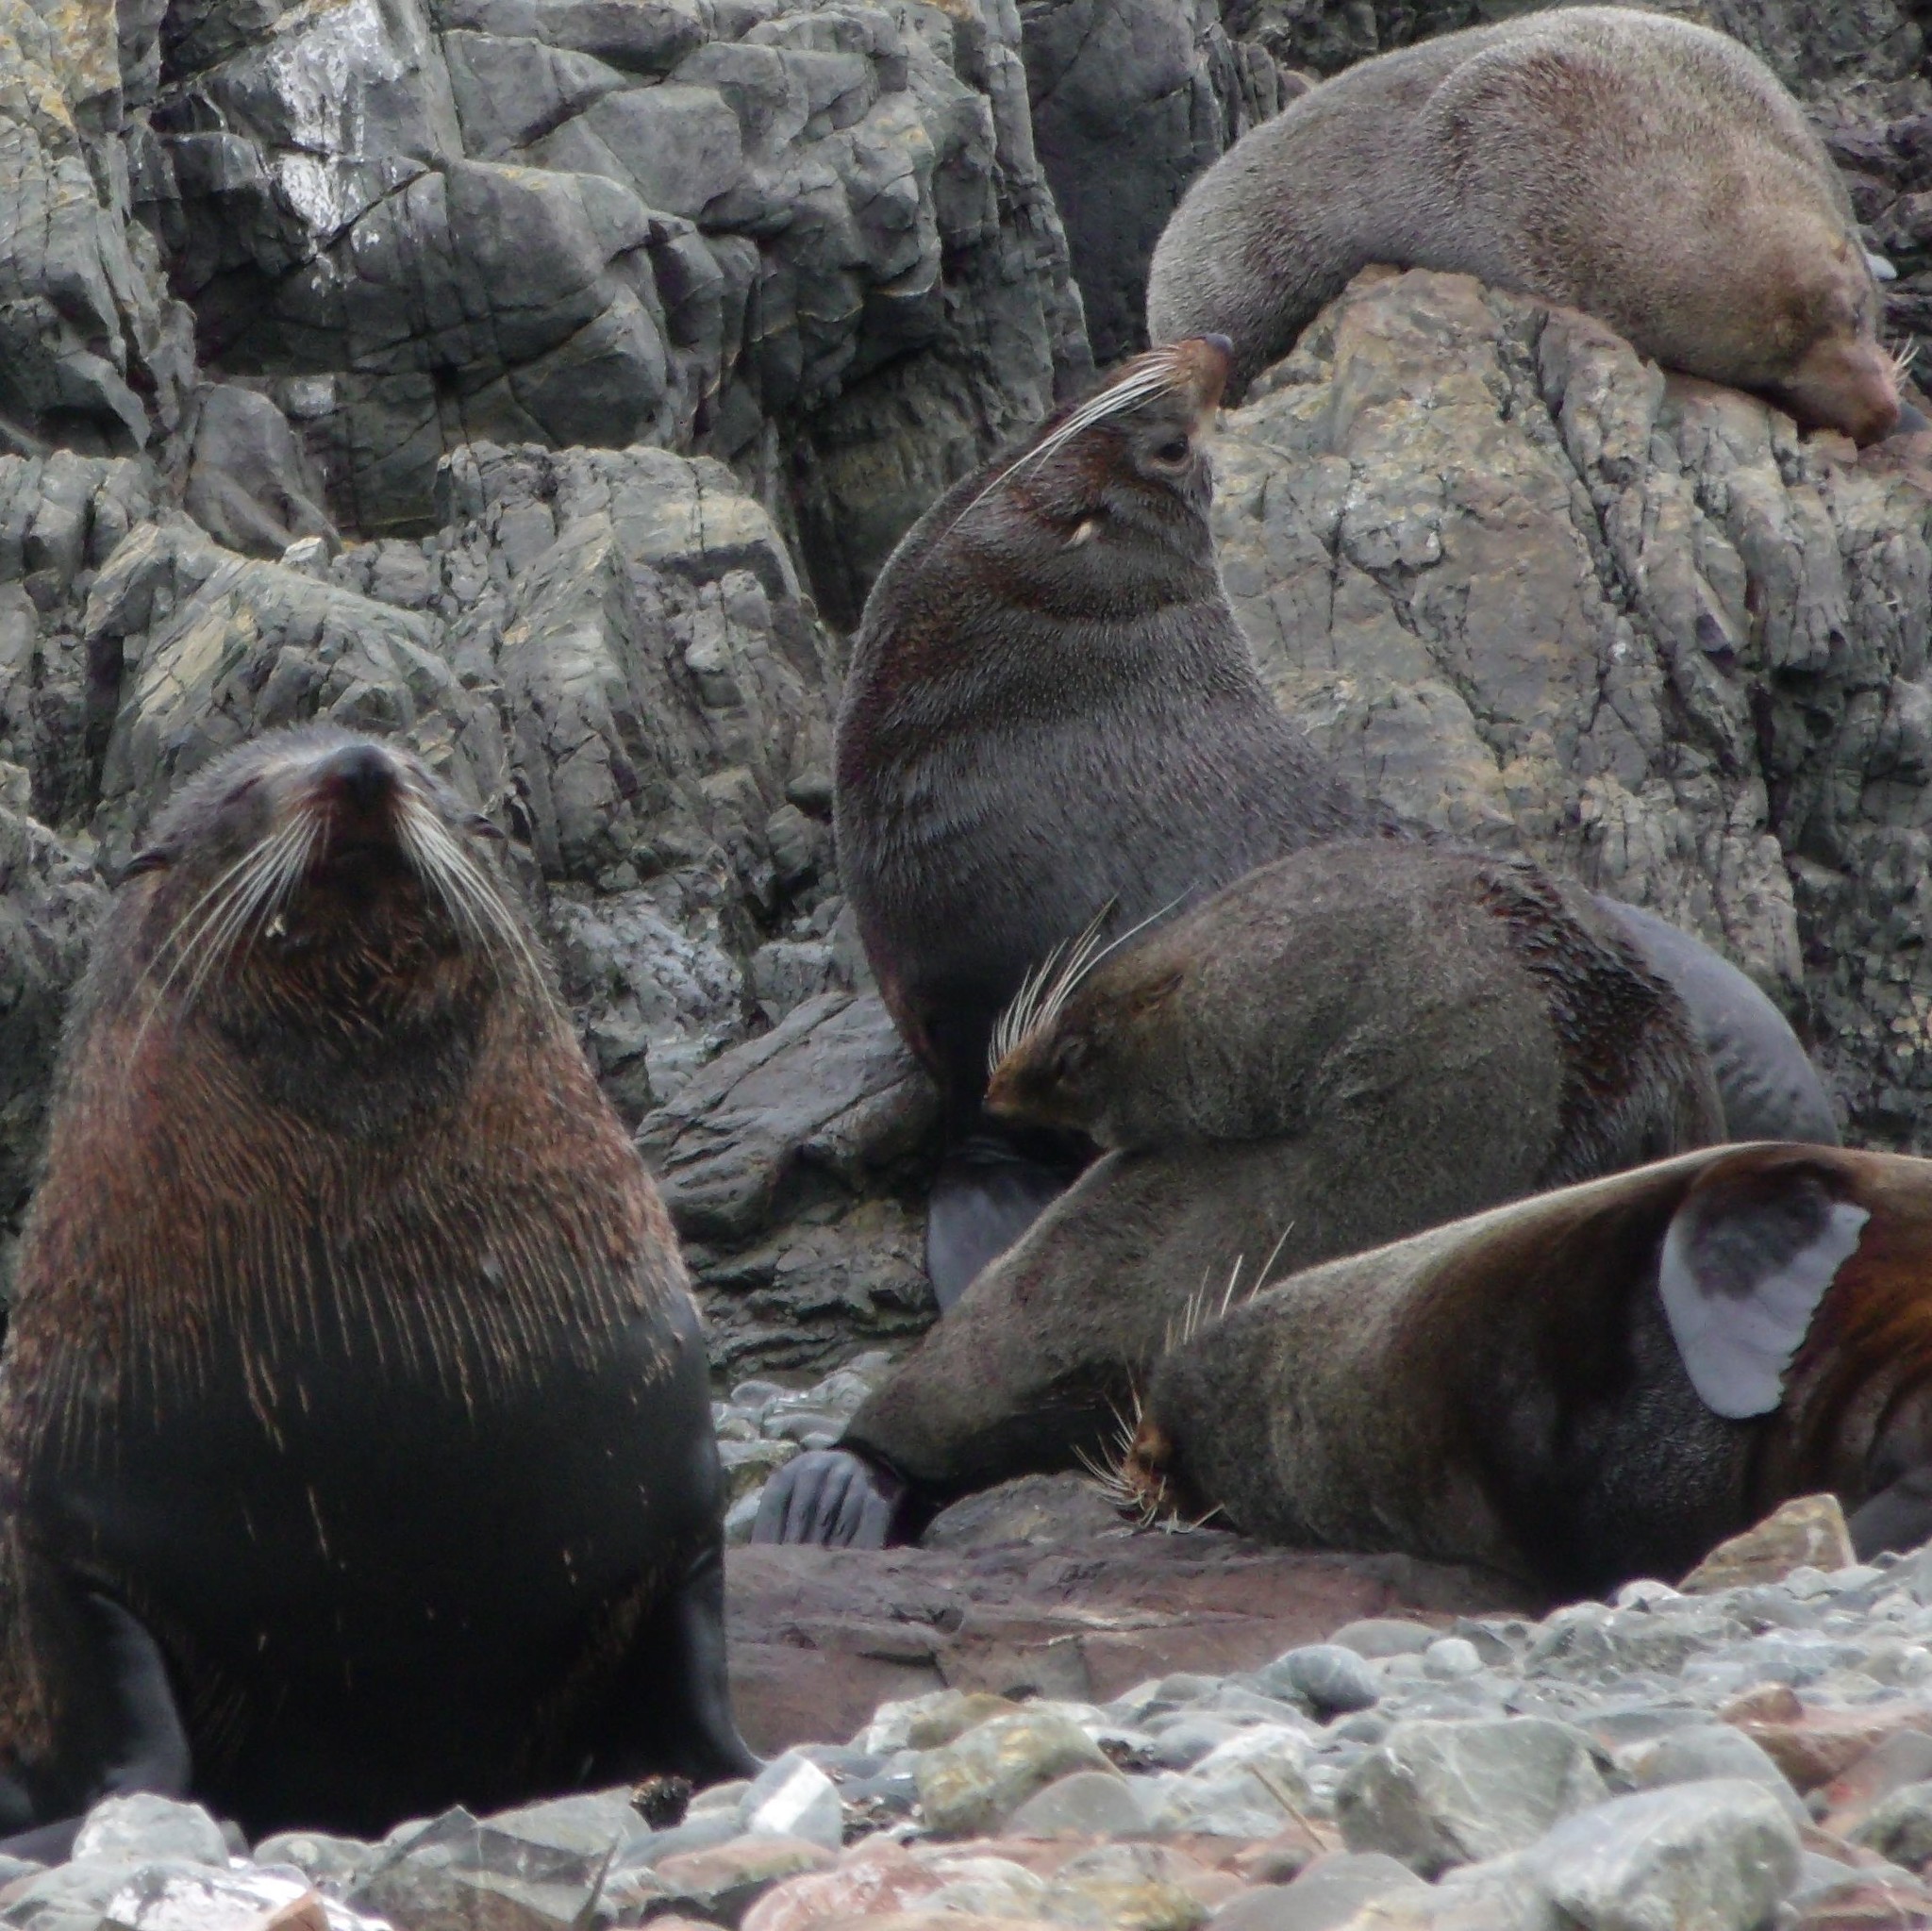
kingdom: Animalia
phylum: Chordata
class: Mammalia
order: Carnivora
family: Otariidae
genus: Arctocephalus
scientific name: Arctocephalus forsteri
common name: New zealand fur seal
